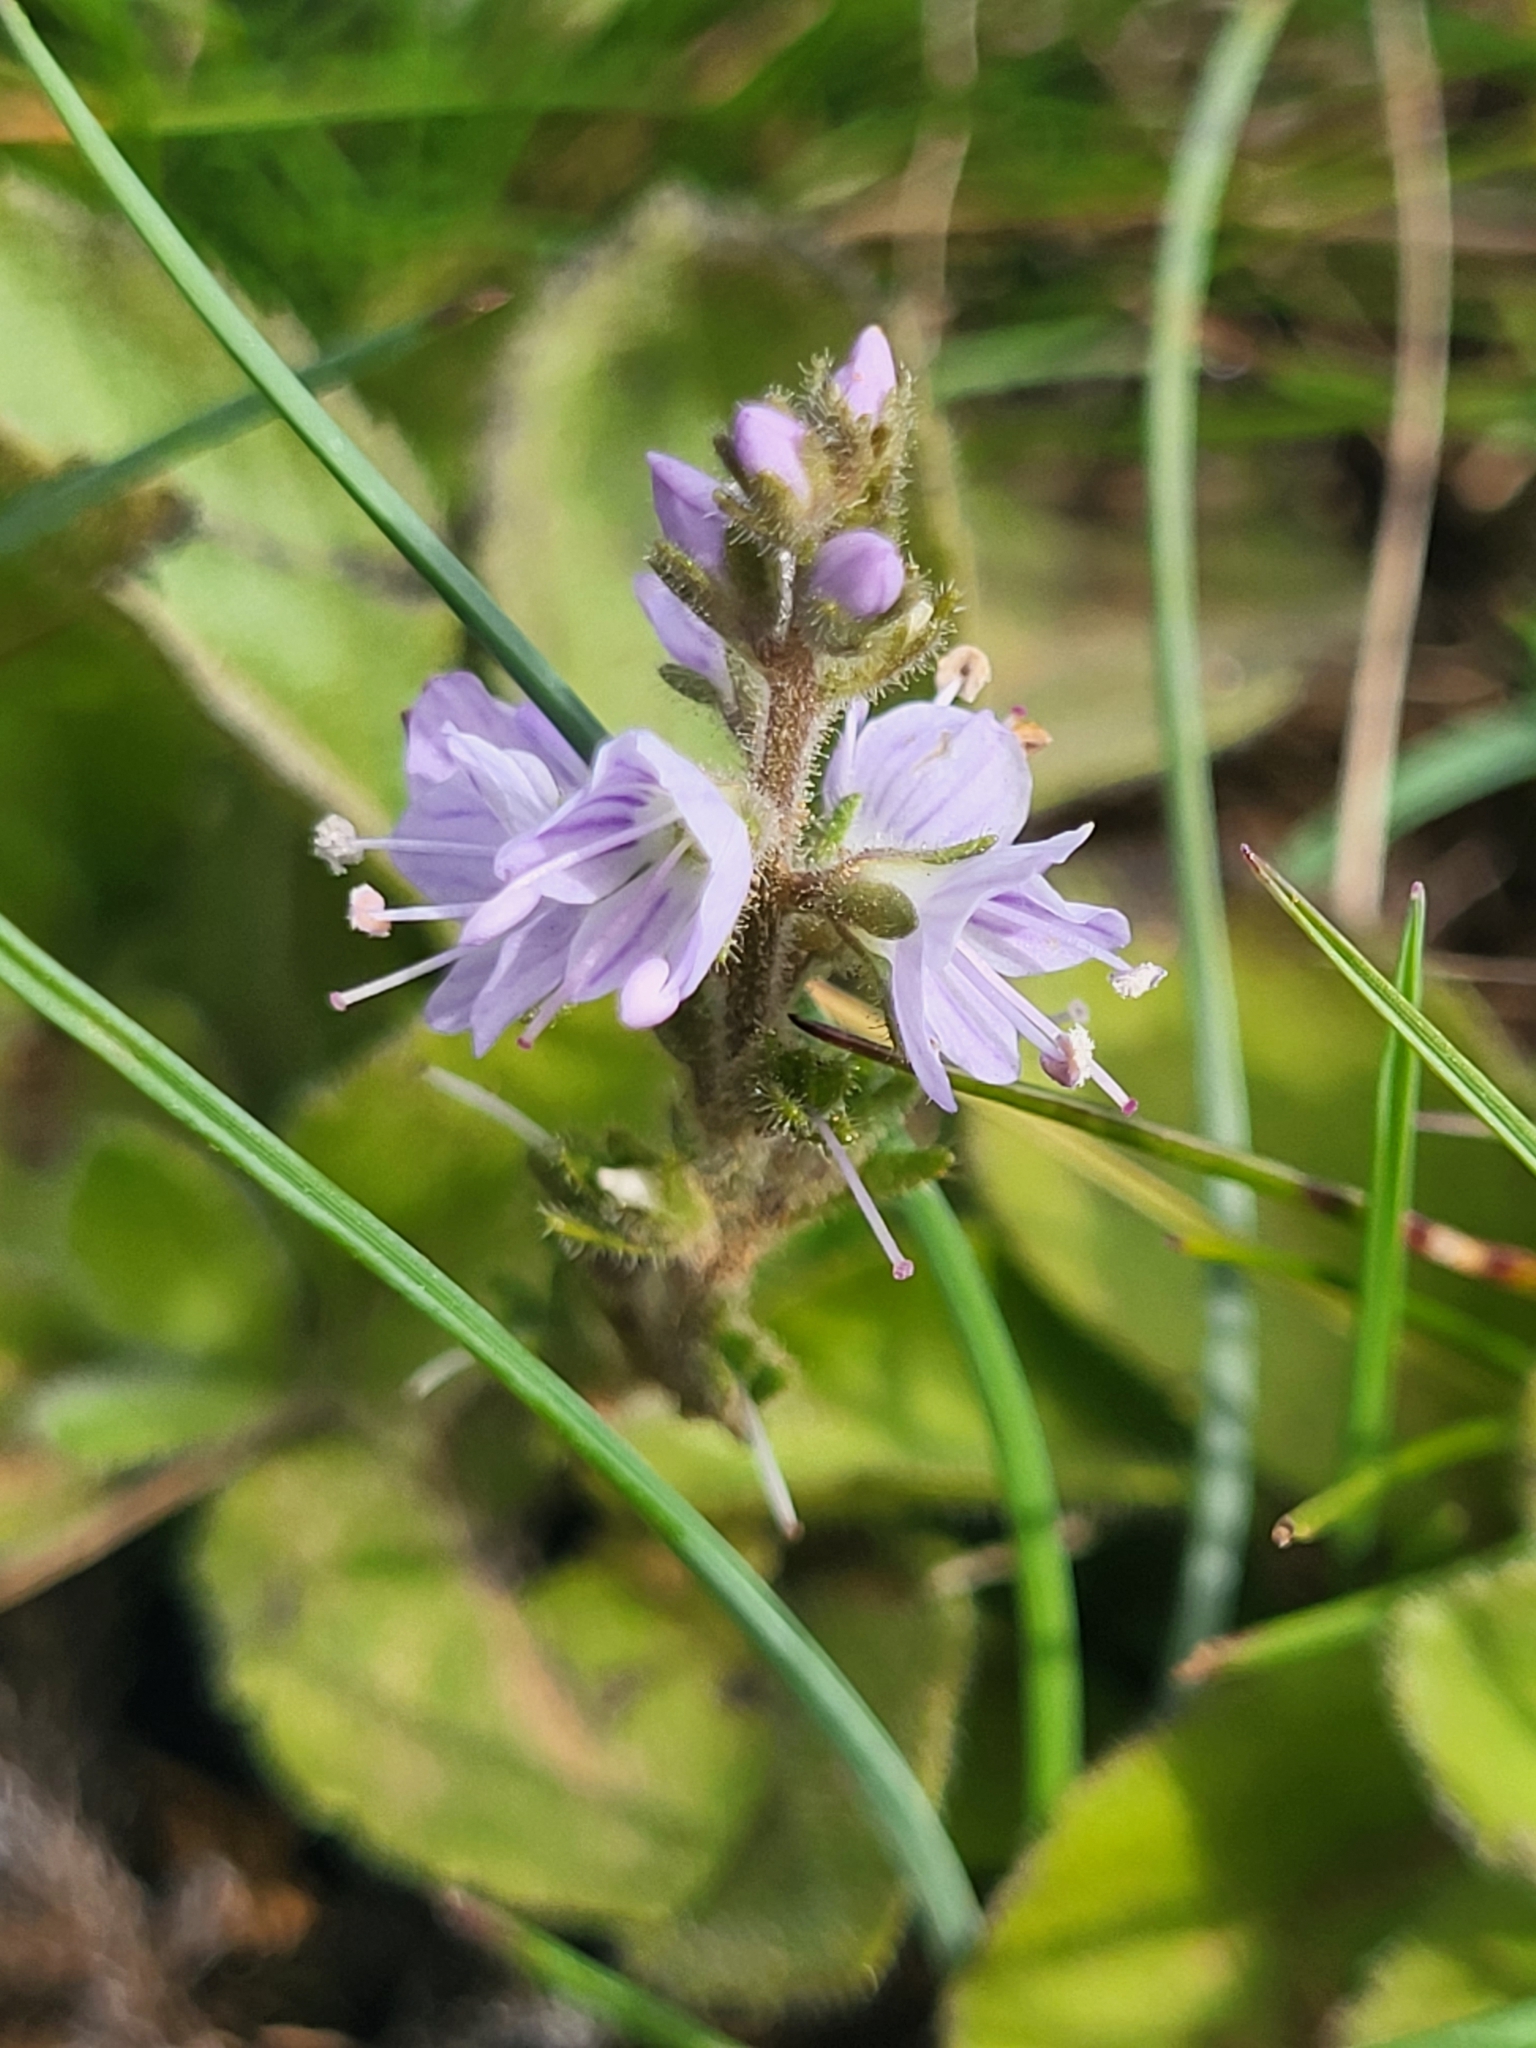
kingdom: Plantae
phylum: Tracheophyta
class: Magnoliopsida
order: Lamiales
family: Plantaginaceae
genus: Veronica
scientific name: Veronica officinalis
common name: Common speedwell
